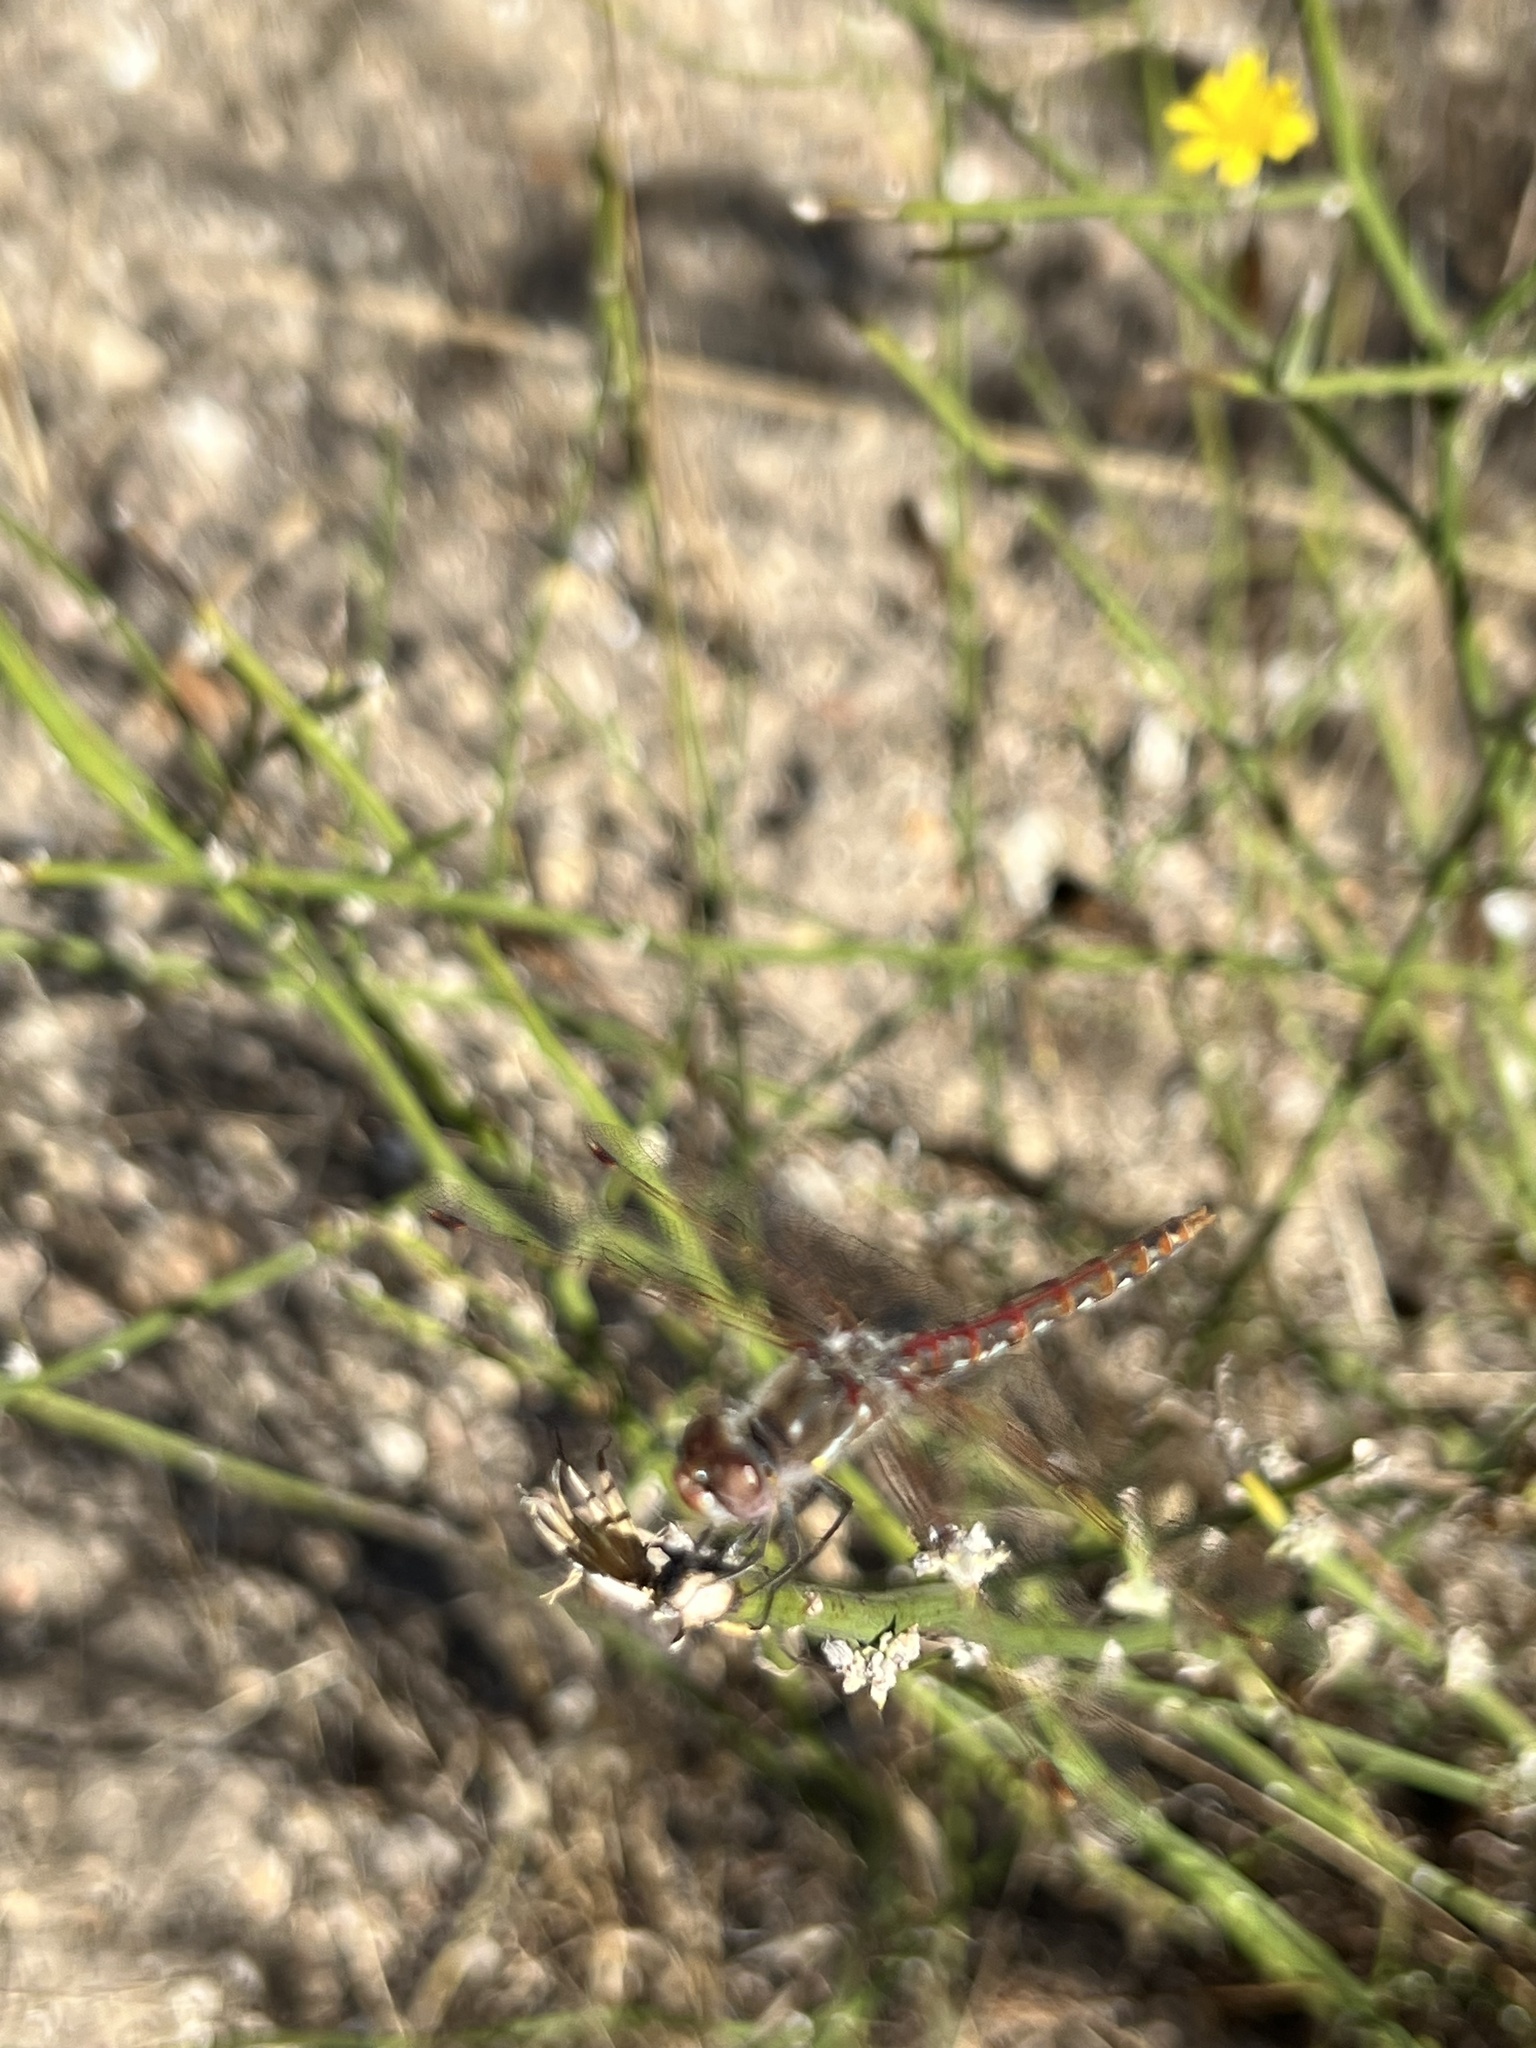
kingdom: Animalia
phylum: Arthropoda
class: Insecta
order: Odonata
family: Libellulidae
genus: Sympetrum
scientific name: Sympetrum corruptum
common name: Variegated meadowhawk
